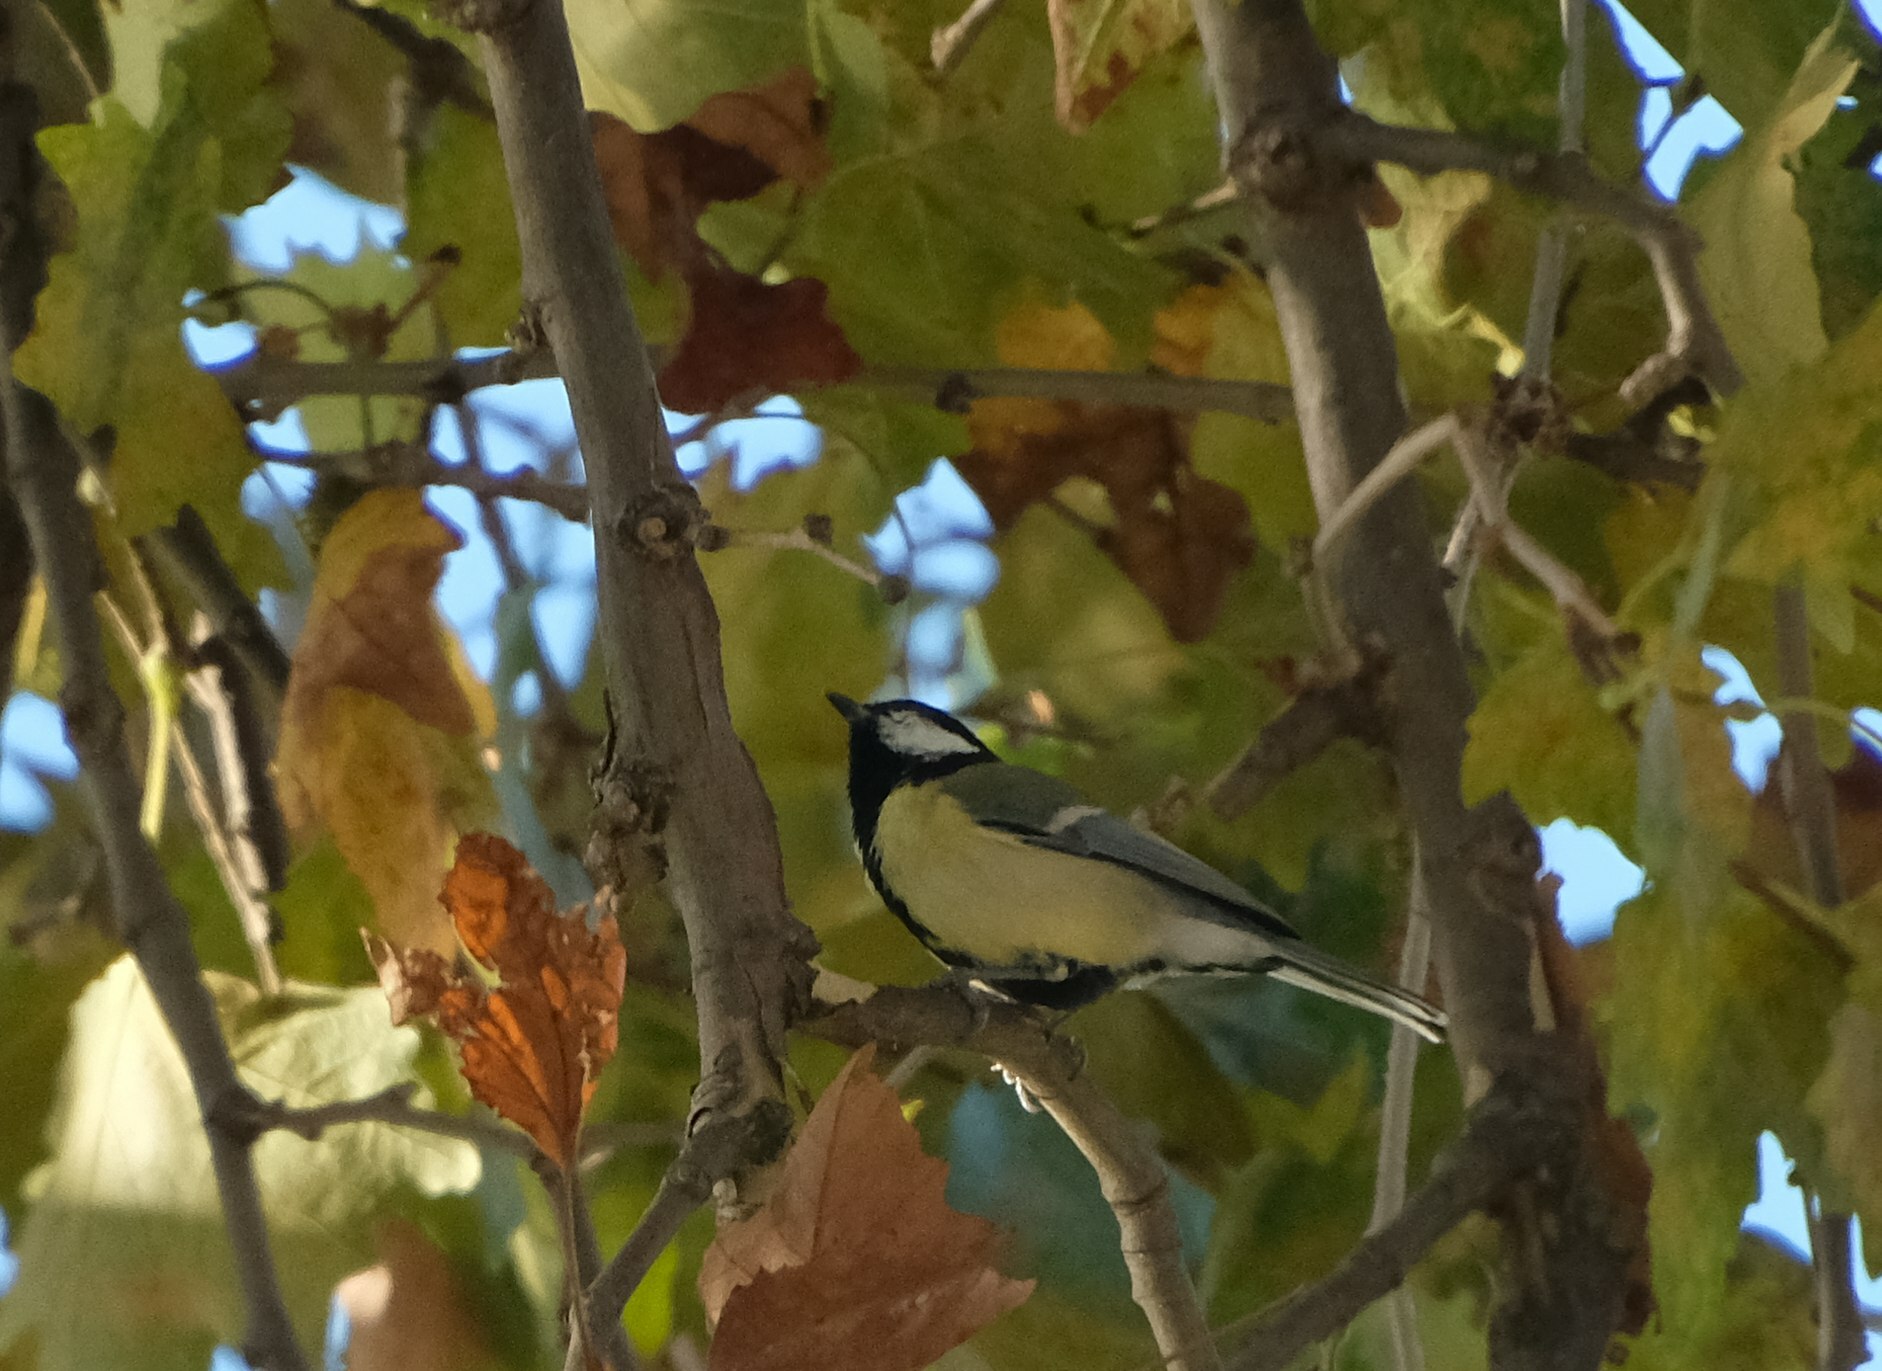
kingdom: Animalia
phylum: Chordata
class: Aves
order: Passeriformes
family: Paridae
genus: Parus
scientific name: Parus major
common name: Great tit
